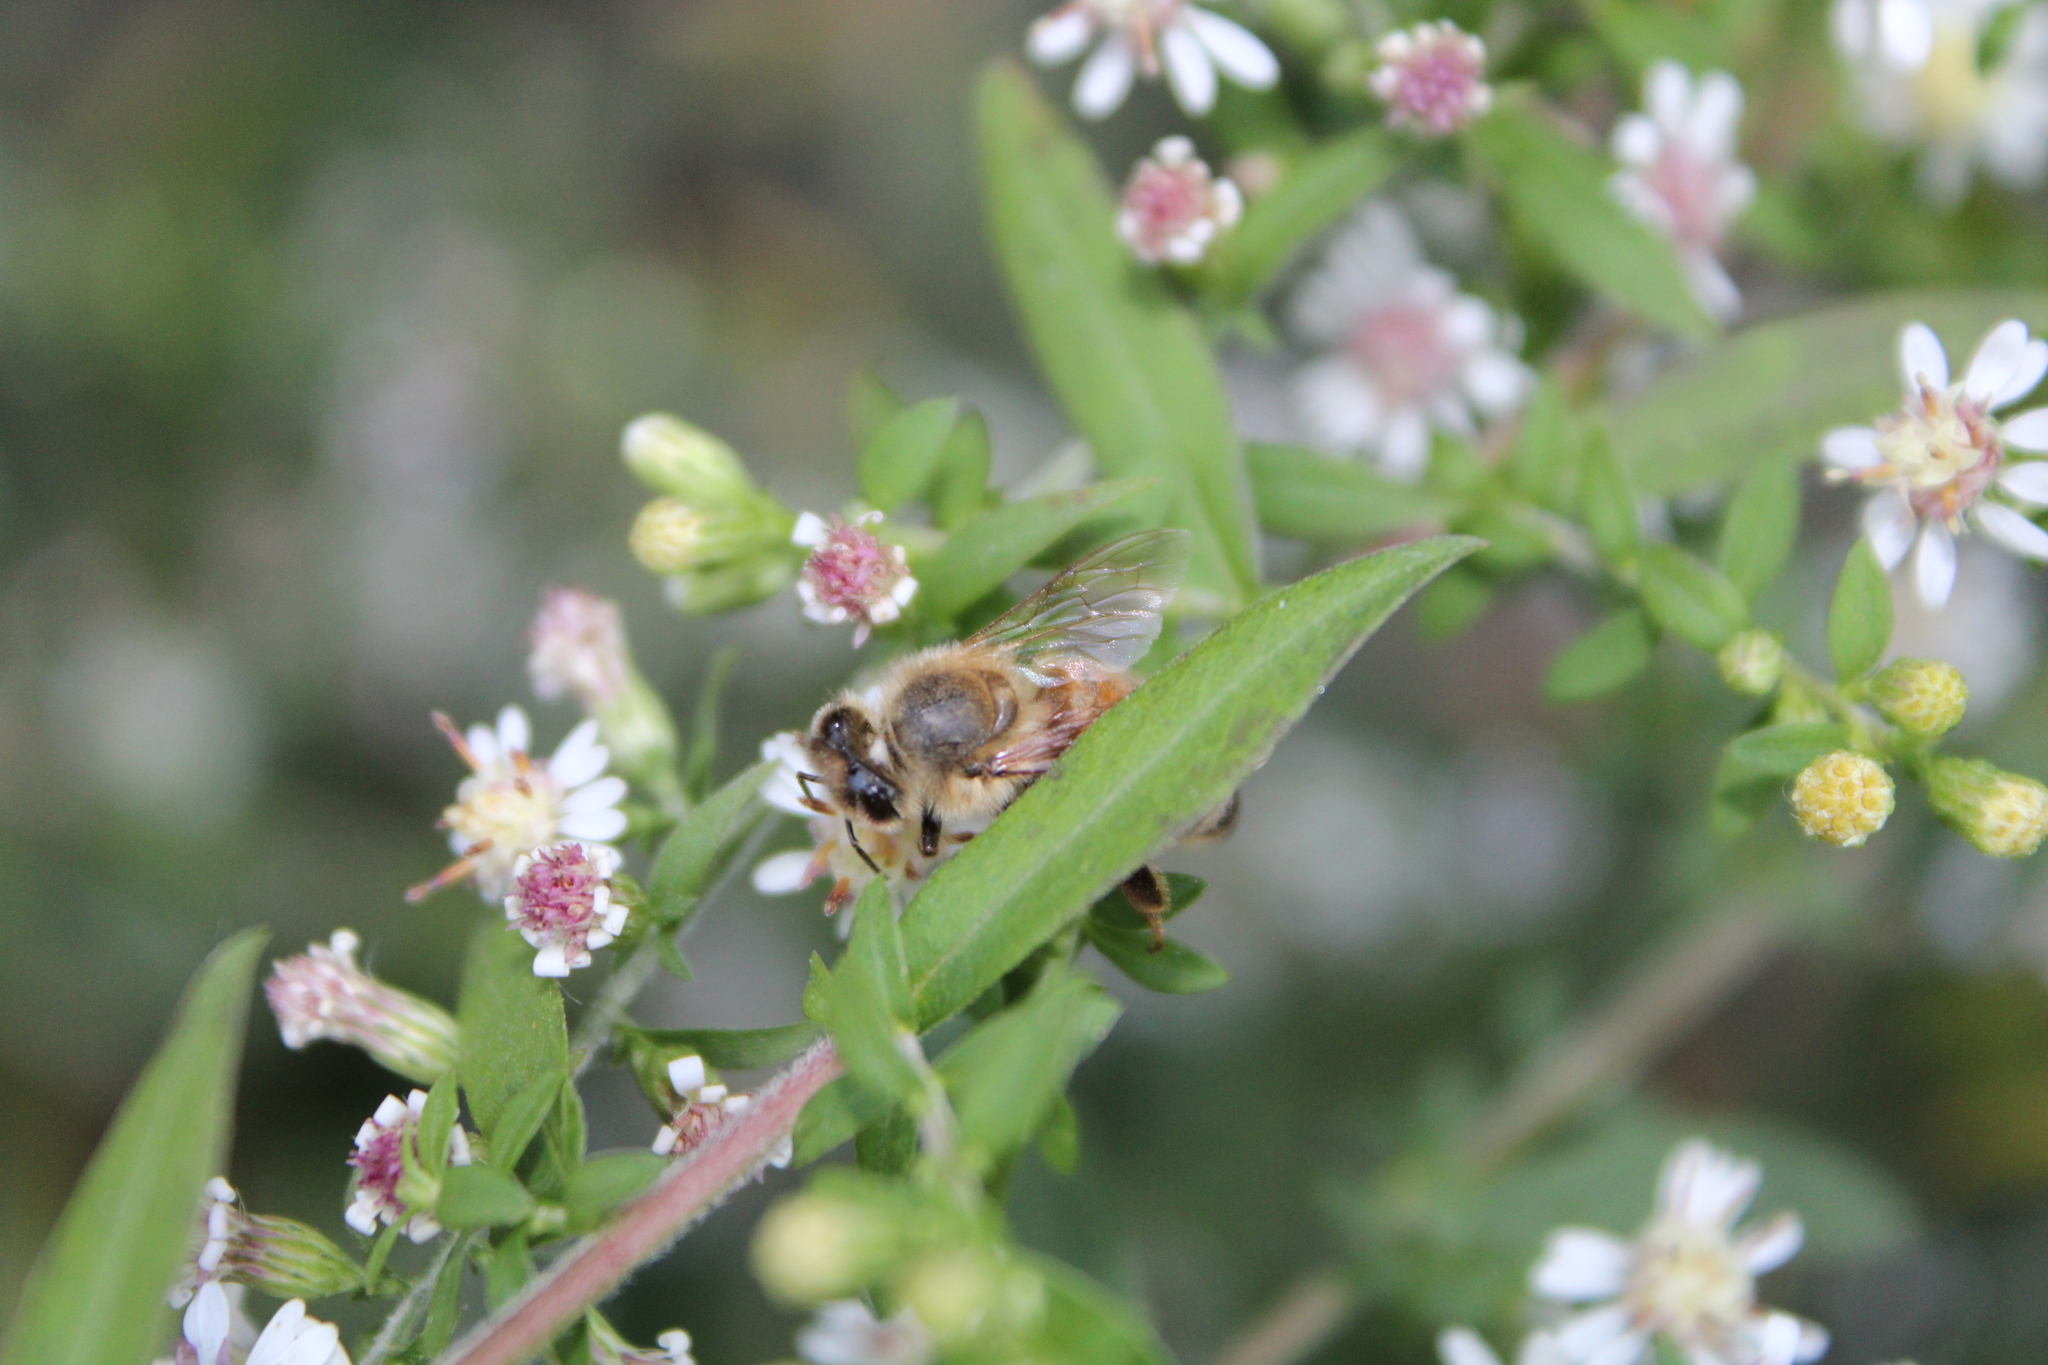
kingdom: Animalia
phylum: Arthropoda
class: Insecta
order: Hymenoptera
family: Apidae
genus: Apis
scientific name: Apis mellifera
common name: Honey bee
